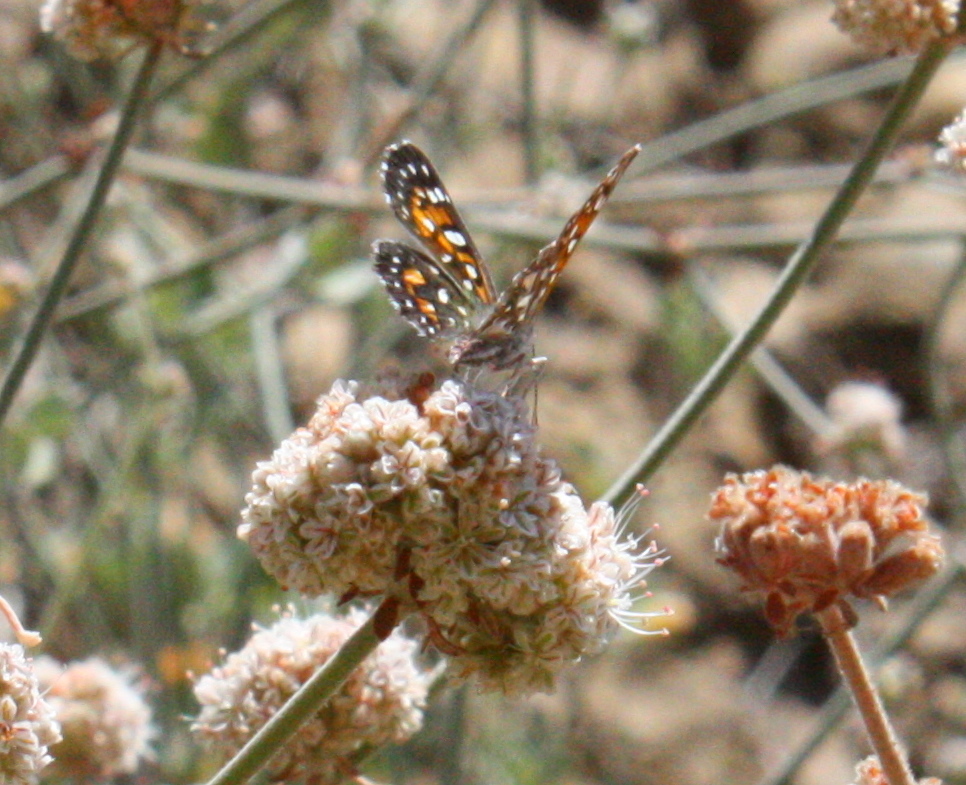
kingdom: Animalia
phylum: Arthropoda
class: Insecta
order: Lepidoptera
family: Riodinidae
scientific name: Riodinidae
